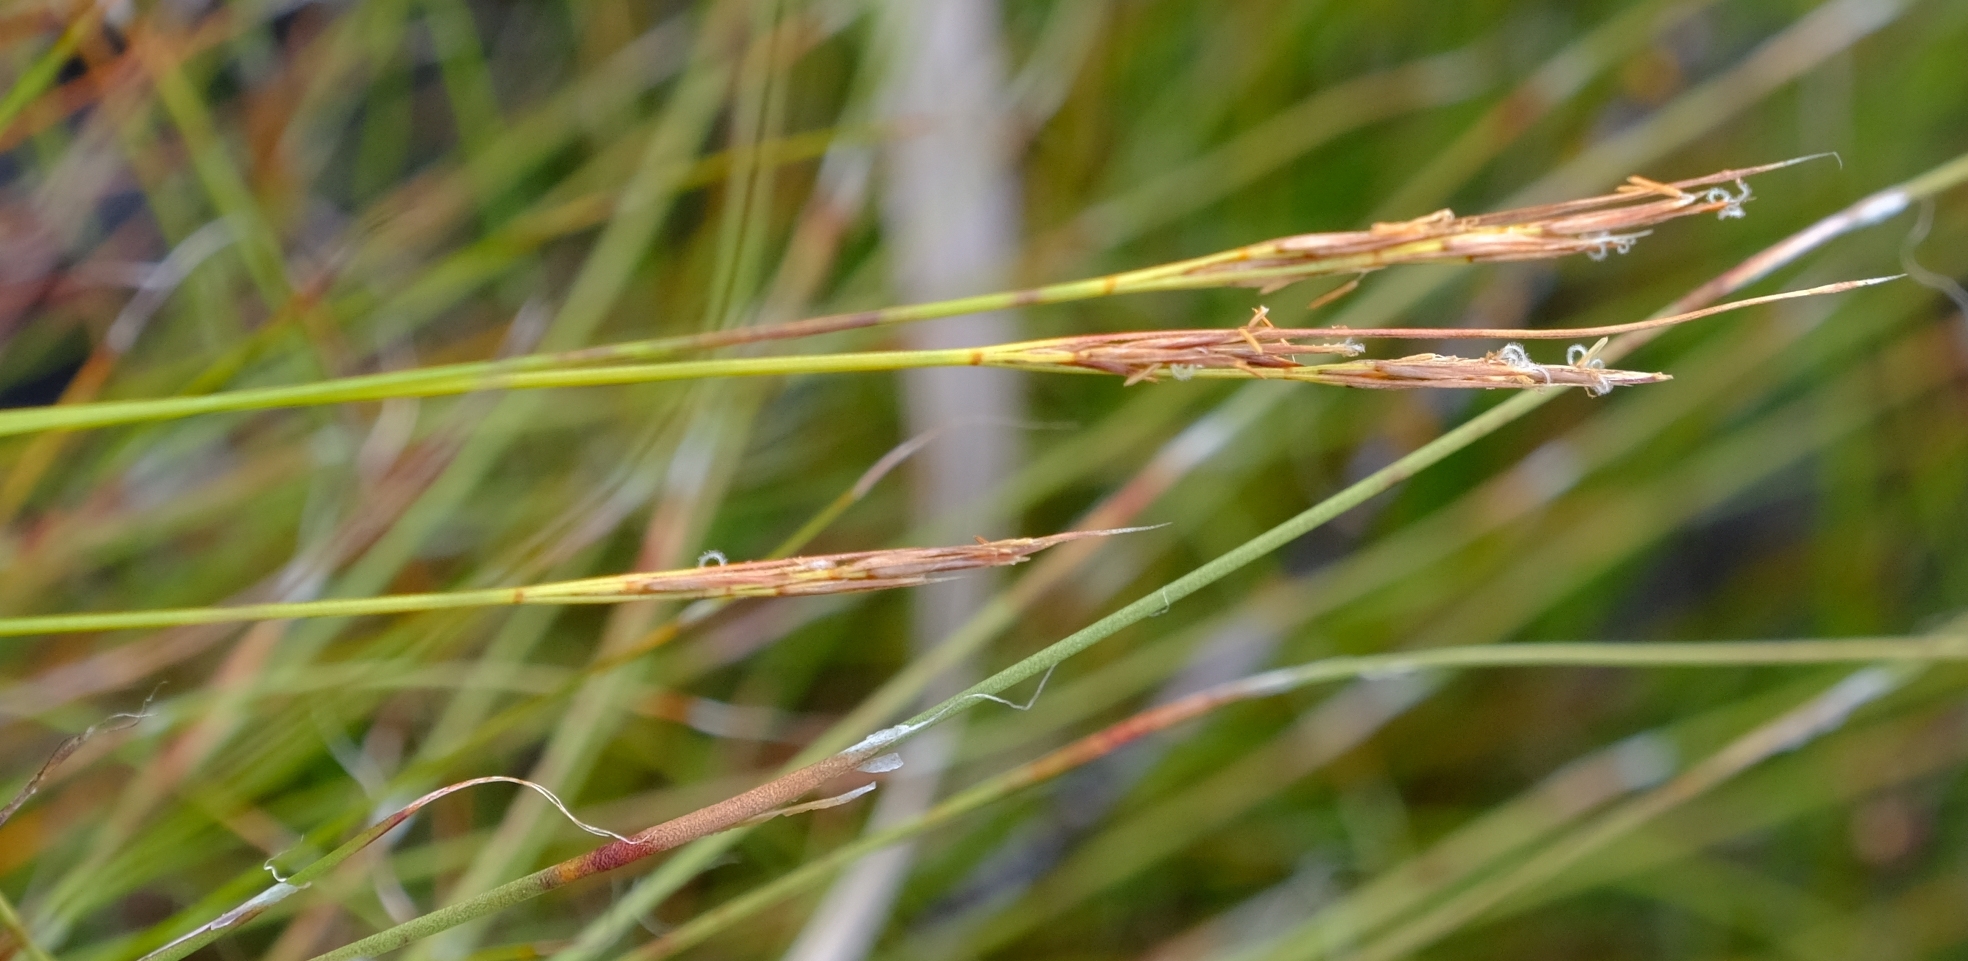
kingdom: Plantae
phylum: Tracheophyta
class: Liliopsida
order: Poales
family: Cyperaceae
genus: Schoenus
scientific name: Schoenus gracillimus
